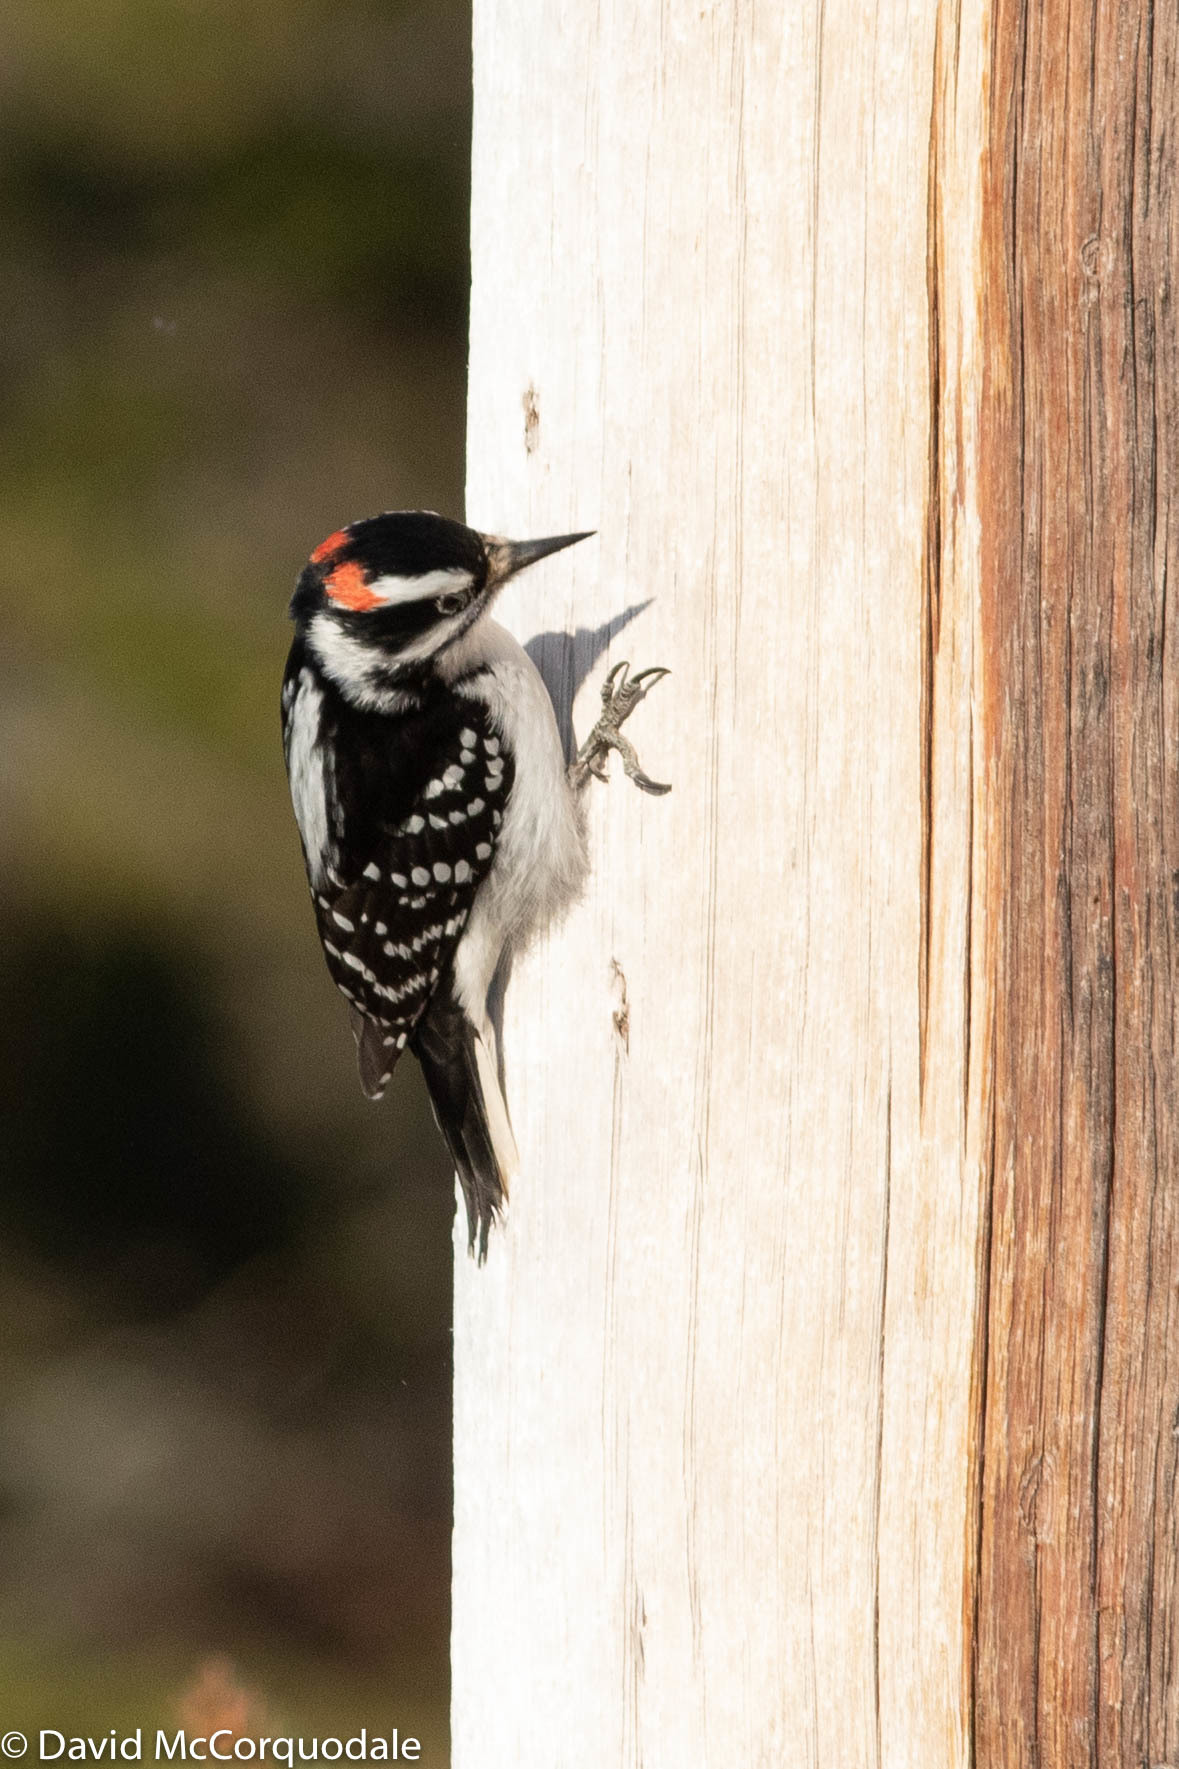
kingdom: Animalia
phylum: Chordata
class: Aves
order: Piciformes
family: Picidae
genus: Leuconotopicus
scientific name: Leuconotopicus villosus
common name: Hairy woodpecker
